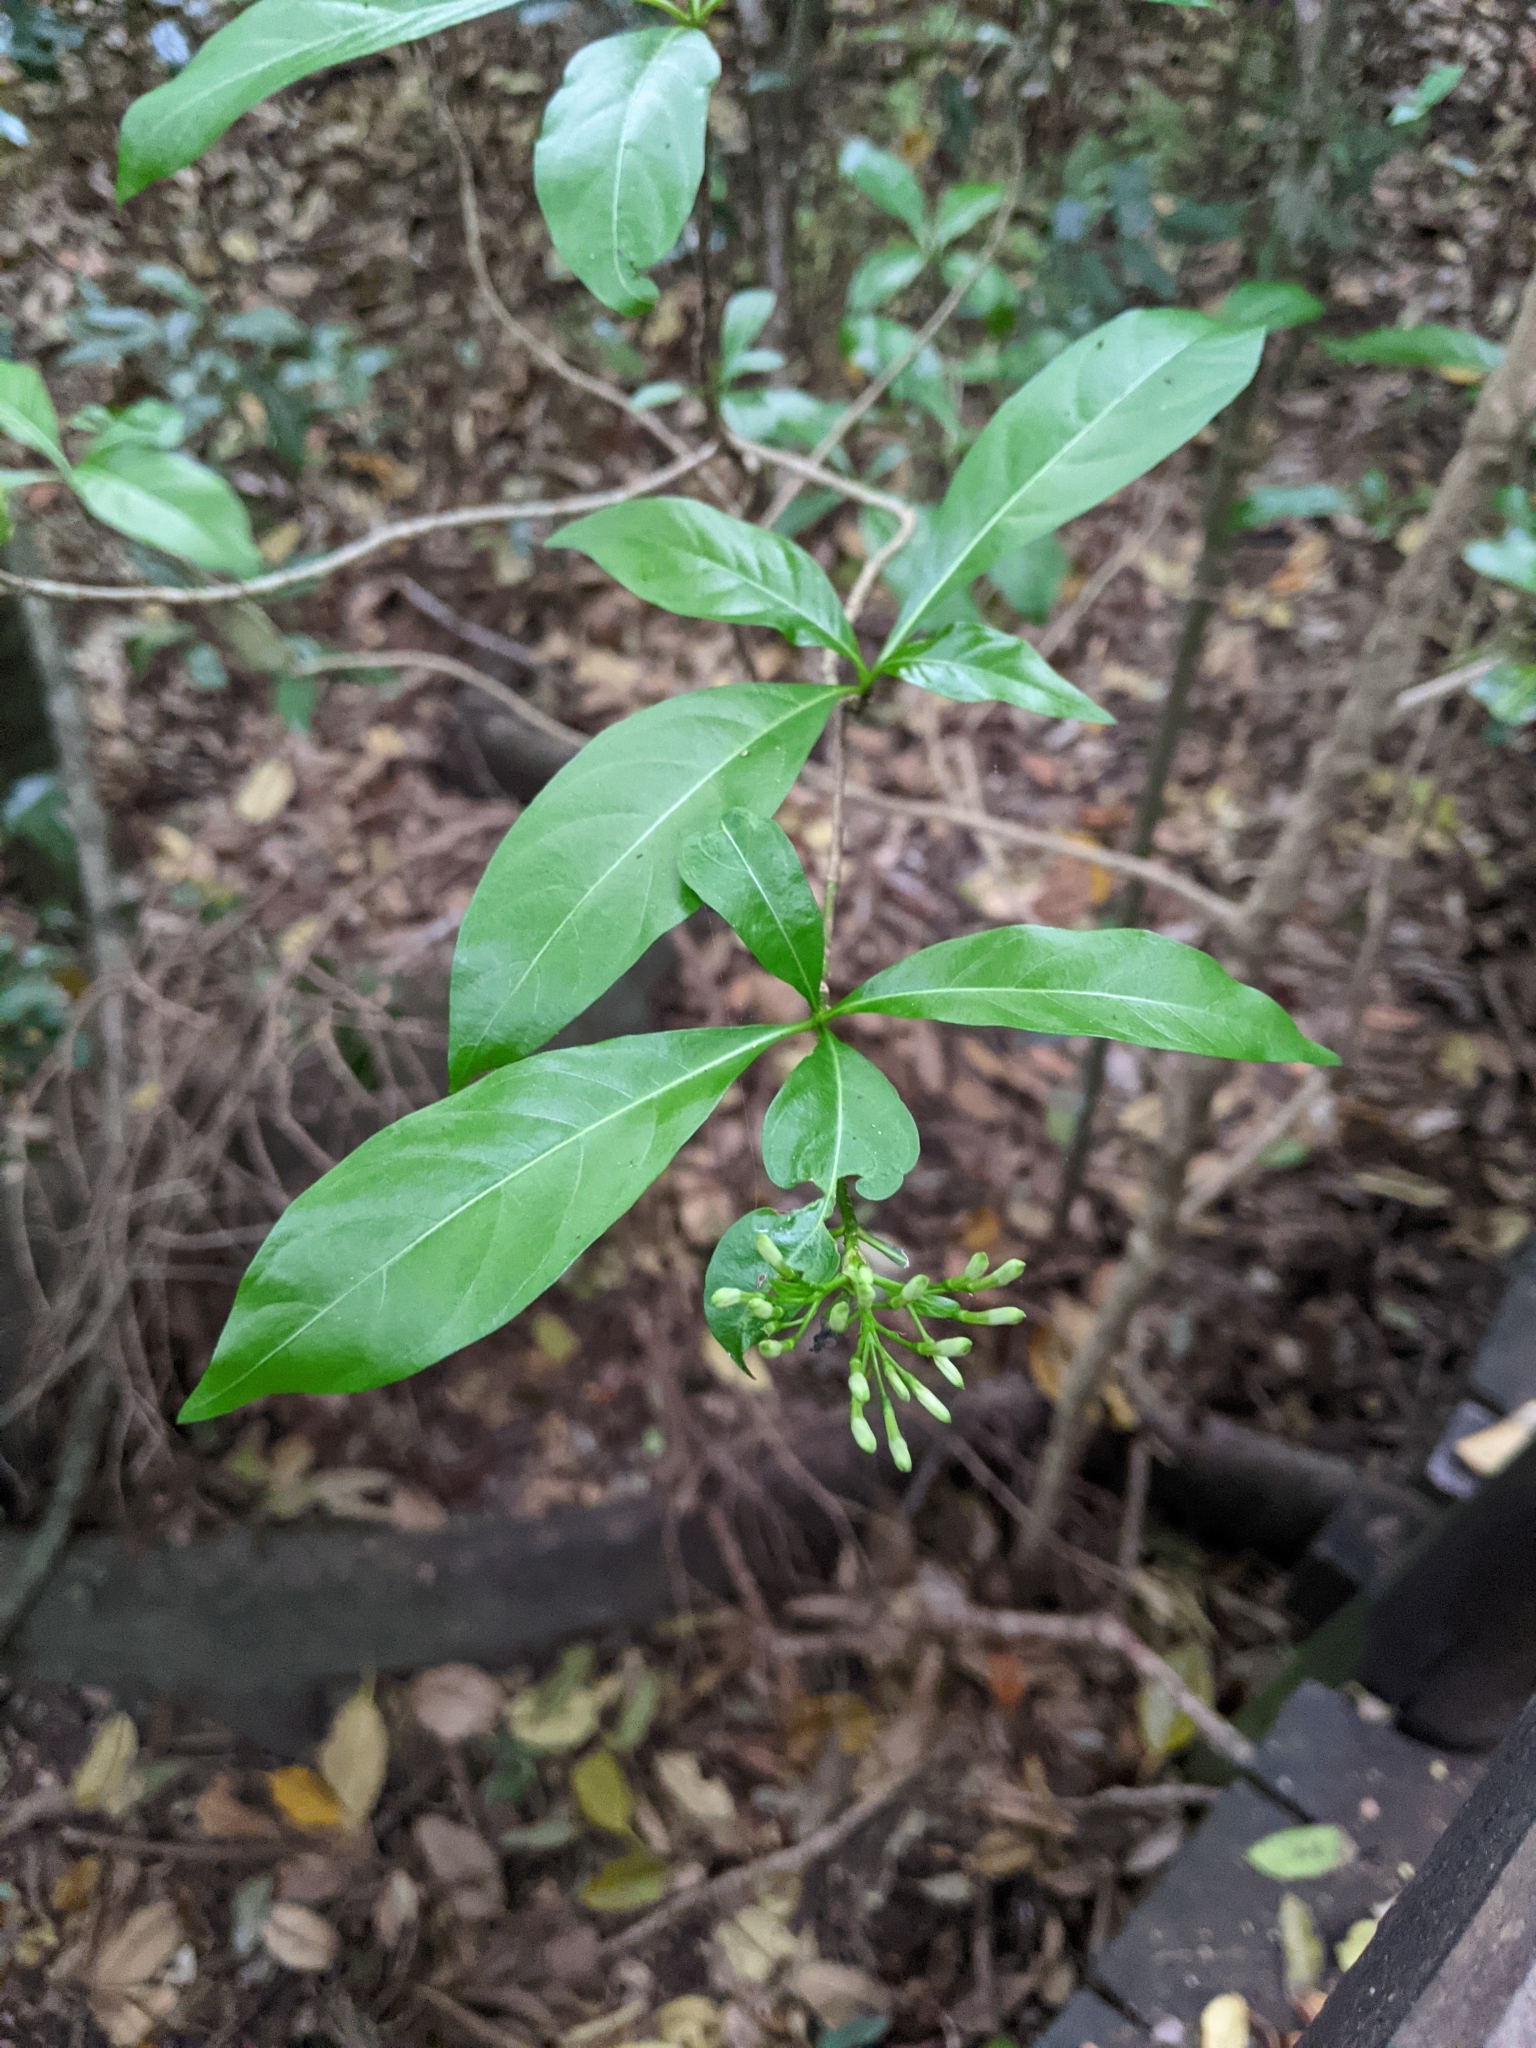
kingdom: Plantae
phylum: Tracheophyta
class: Magnoliopsida
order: Gentianales
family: Rubiaceae
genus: Pavetta
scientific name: Pavetta australiensis
